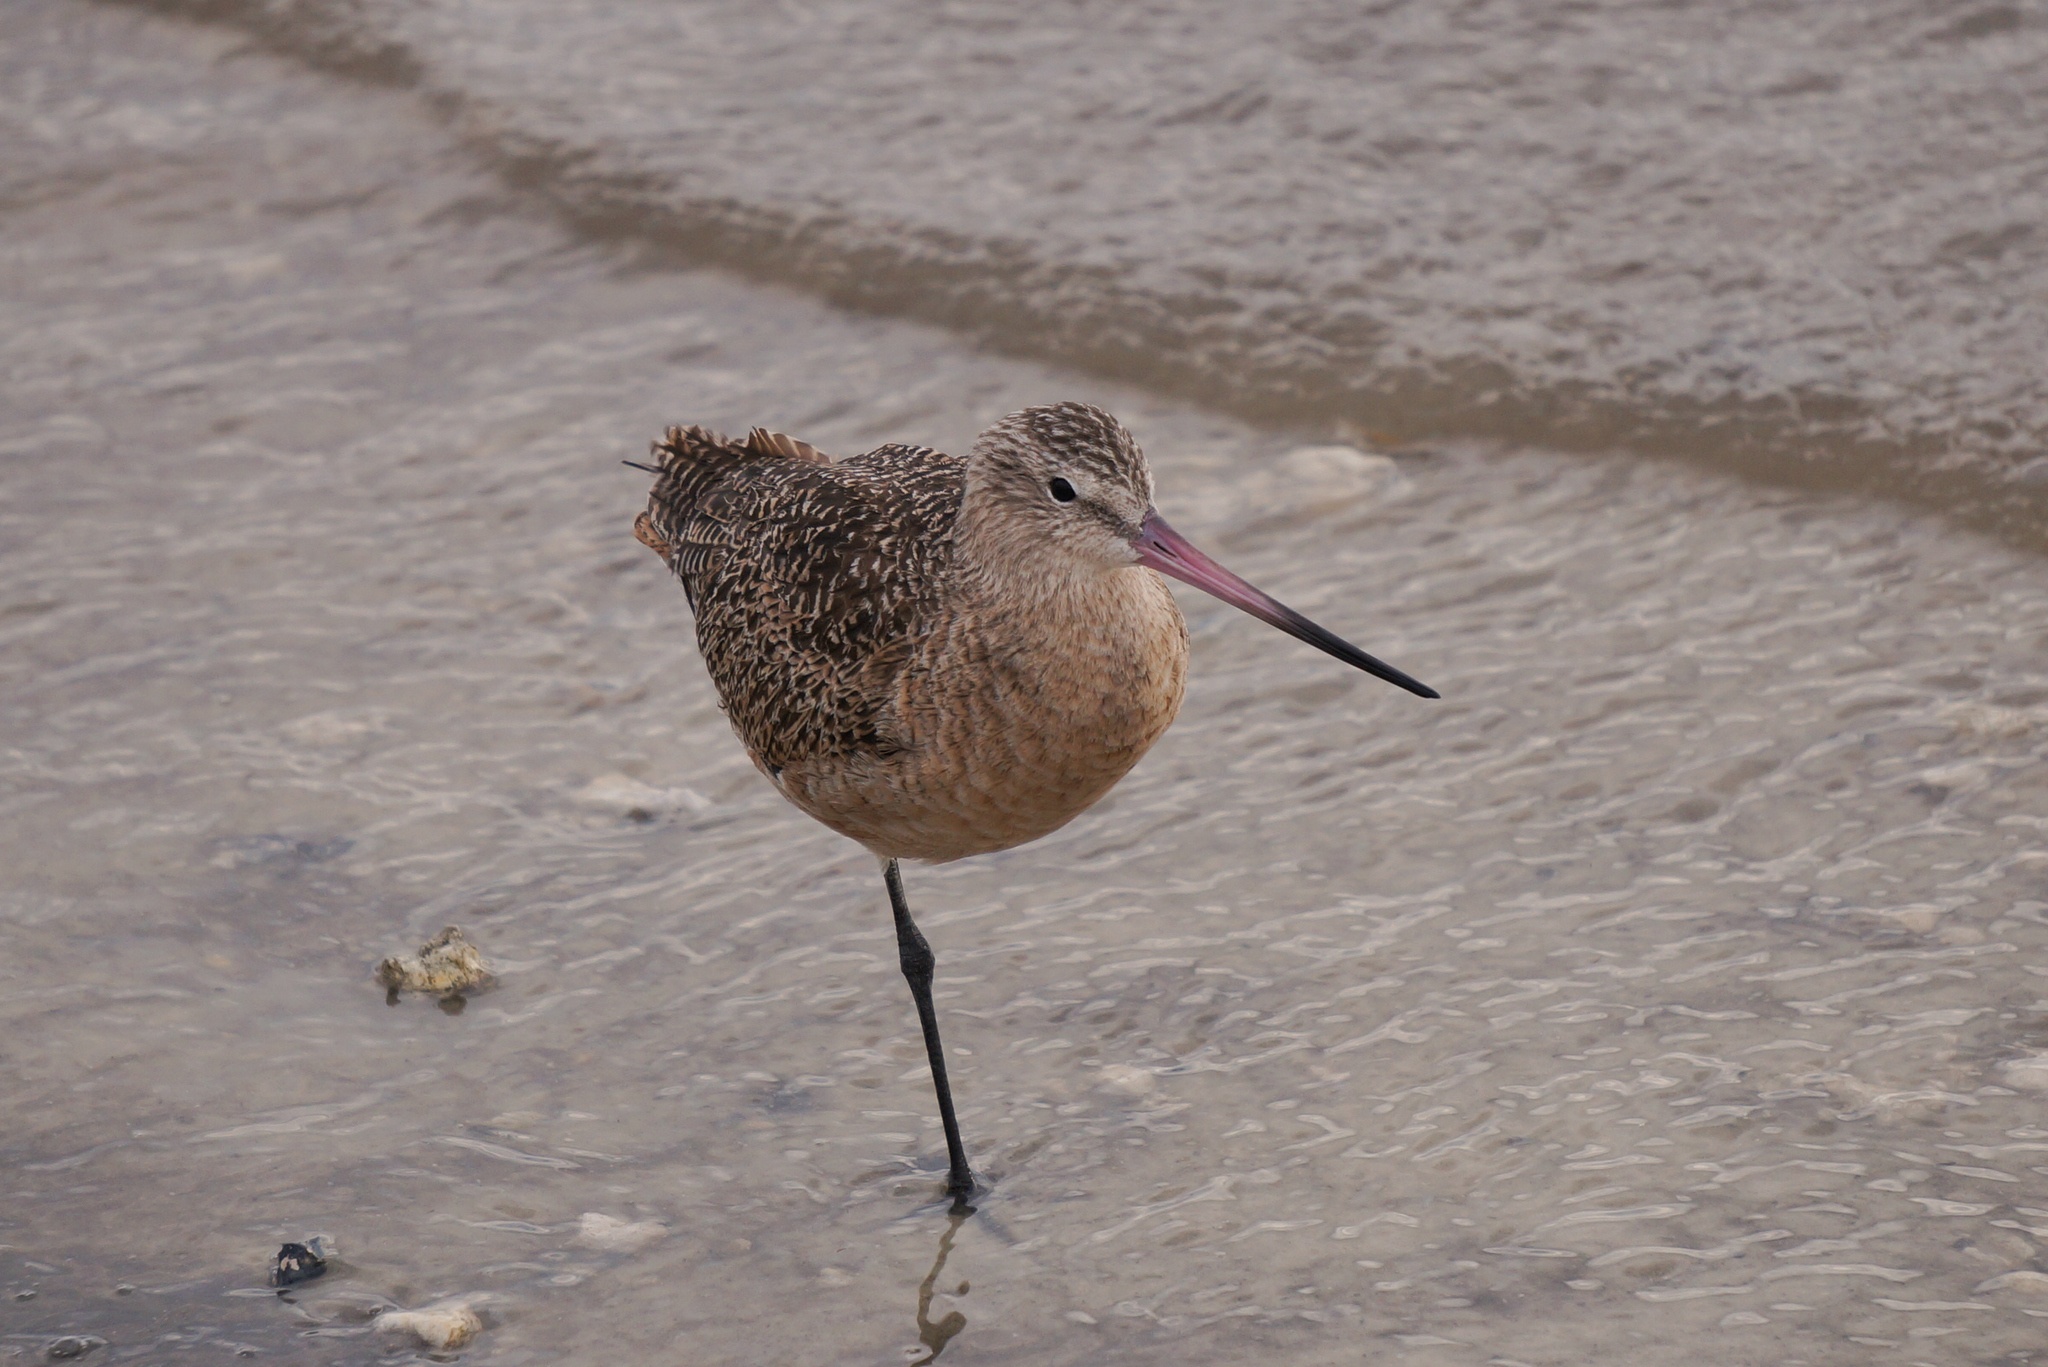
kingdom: Animalia
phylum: Chordata
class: Aves
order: Charadriiformes
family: Scolopacidae
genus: Limosa
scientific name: Limosa fedoa
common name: Marbled godwit
